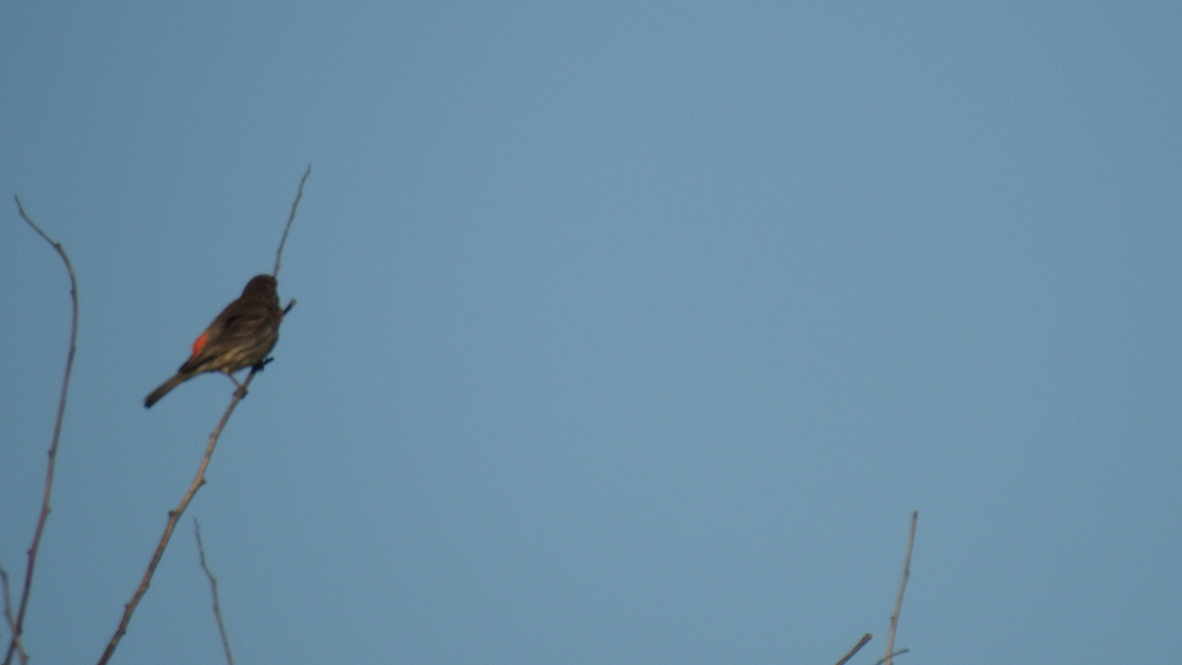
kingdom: Animalia
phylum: Chordata
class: Aves
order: Passeriformes
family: Fringillidae
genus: Haemorhous
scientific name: Haemorhous mexicanus
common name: House finch
